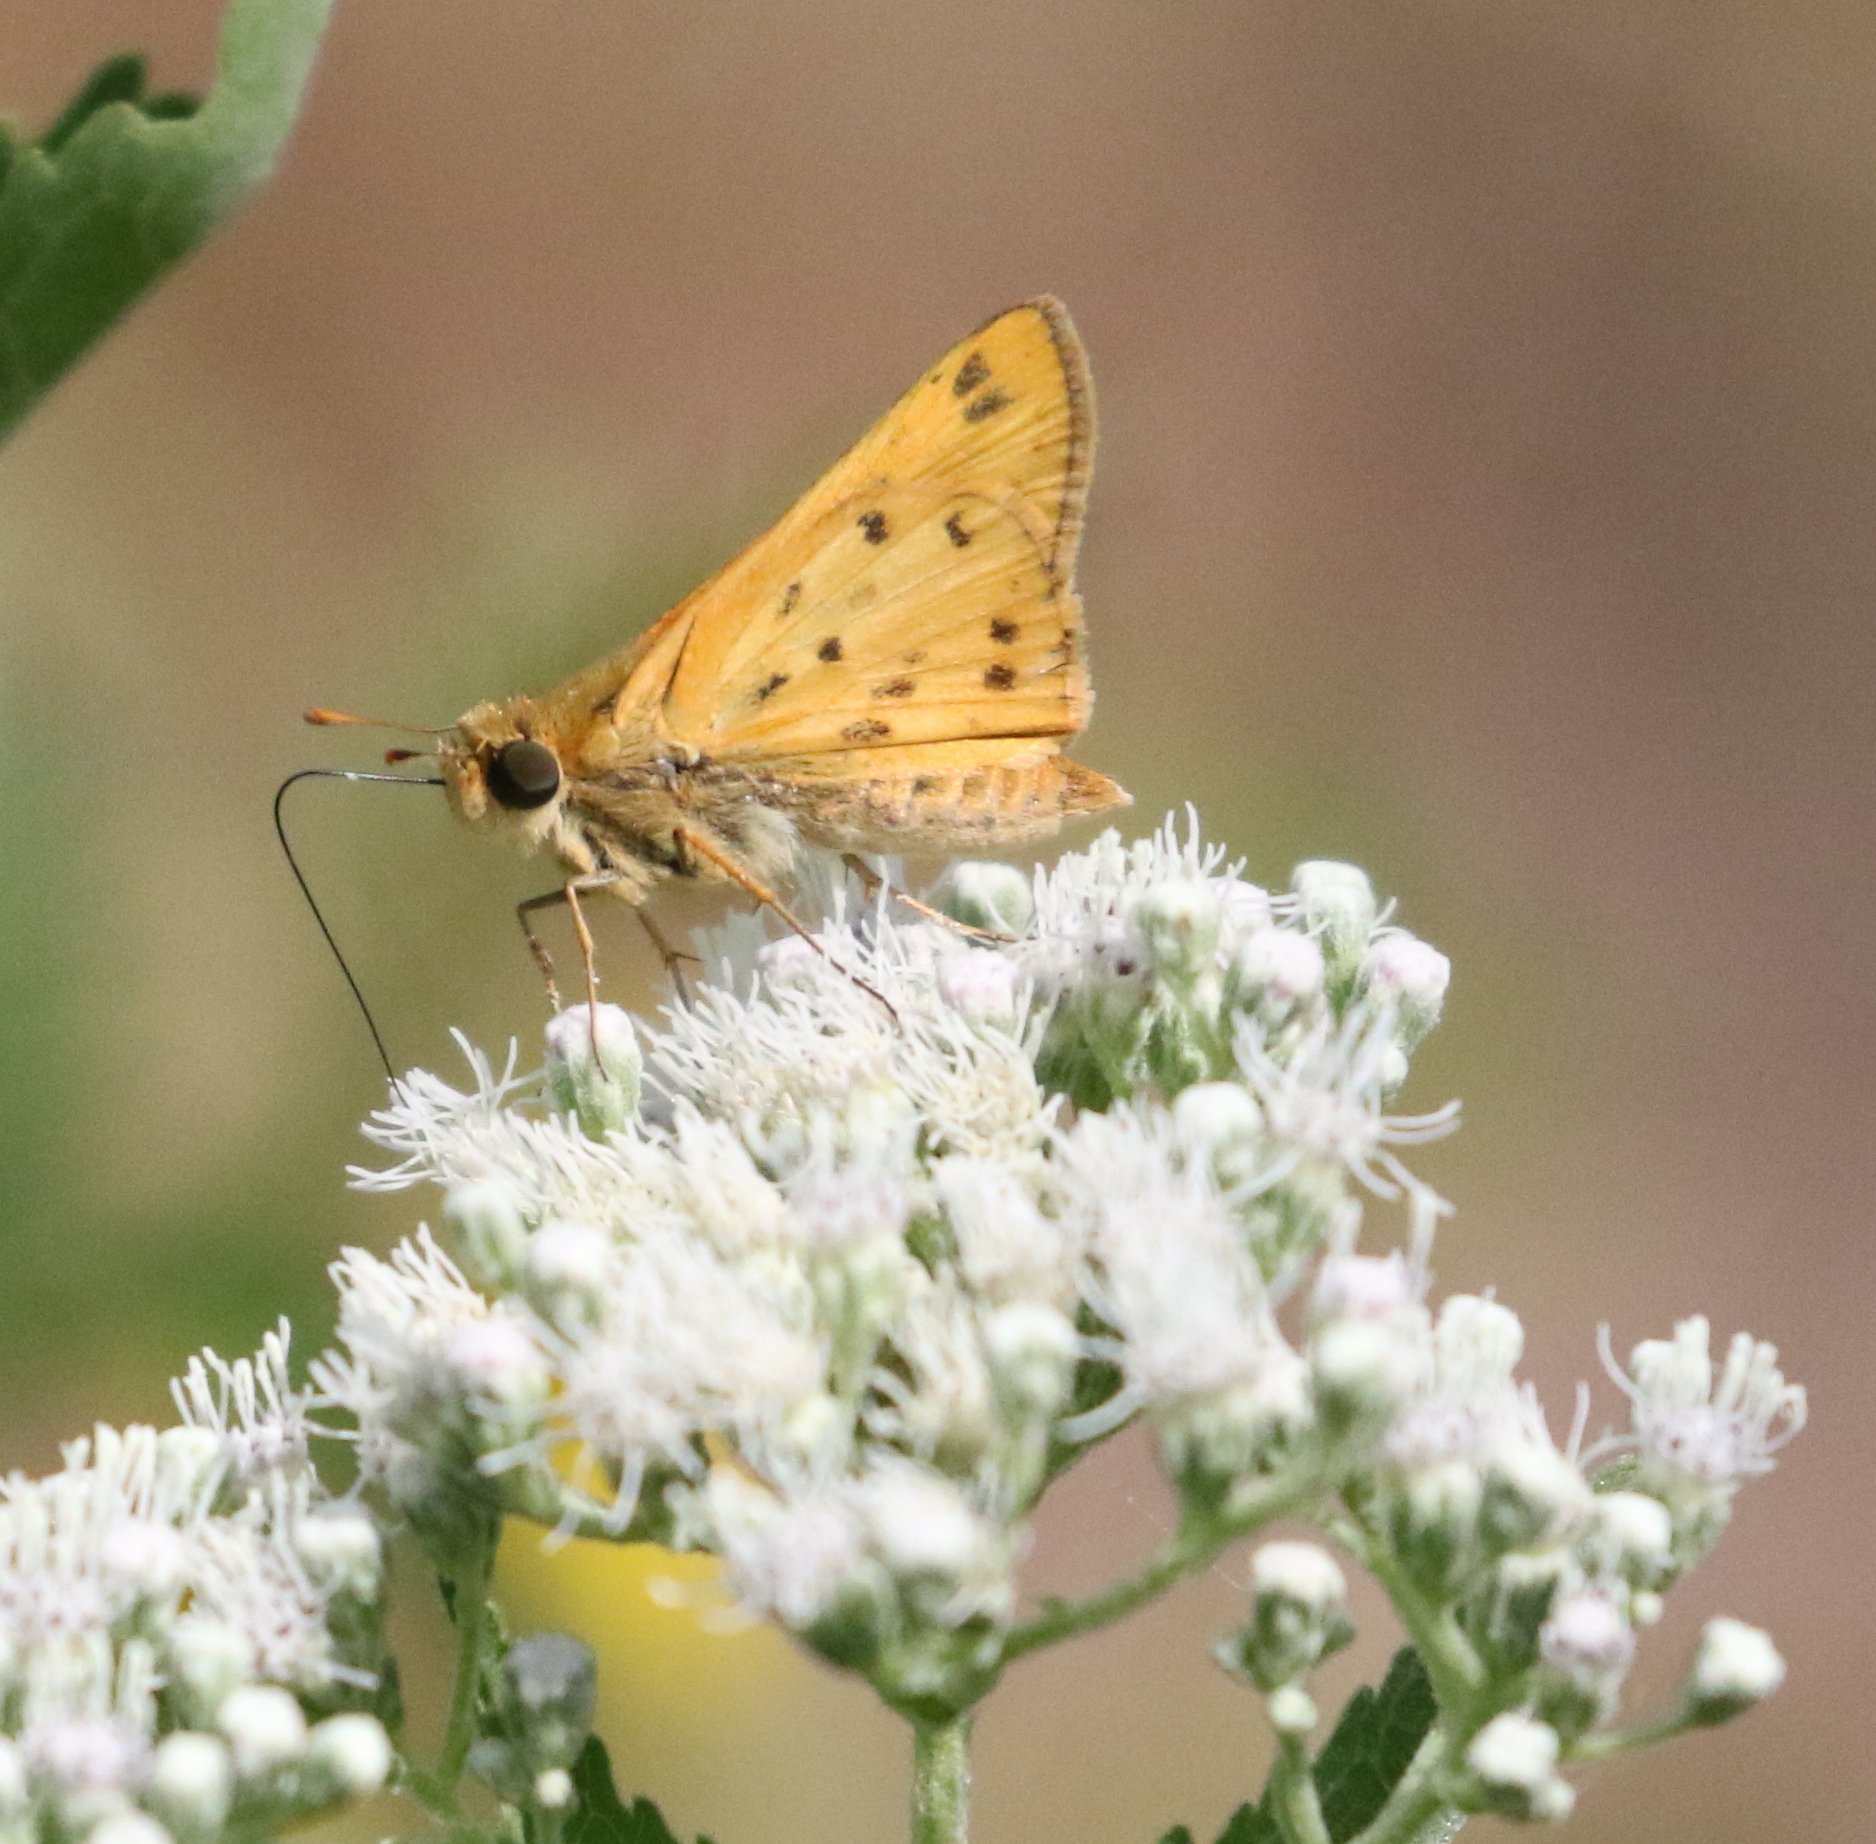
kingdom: Animalia
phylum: Arthropoda
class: Insecta
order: Lepidoptera
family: Hesperiidae
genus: Hylephila
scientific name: Hylephila phyleus
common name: Fiery skipper
